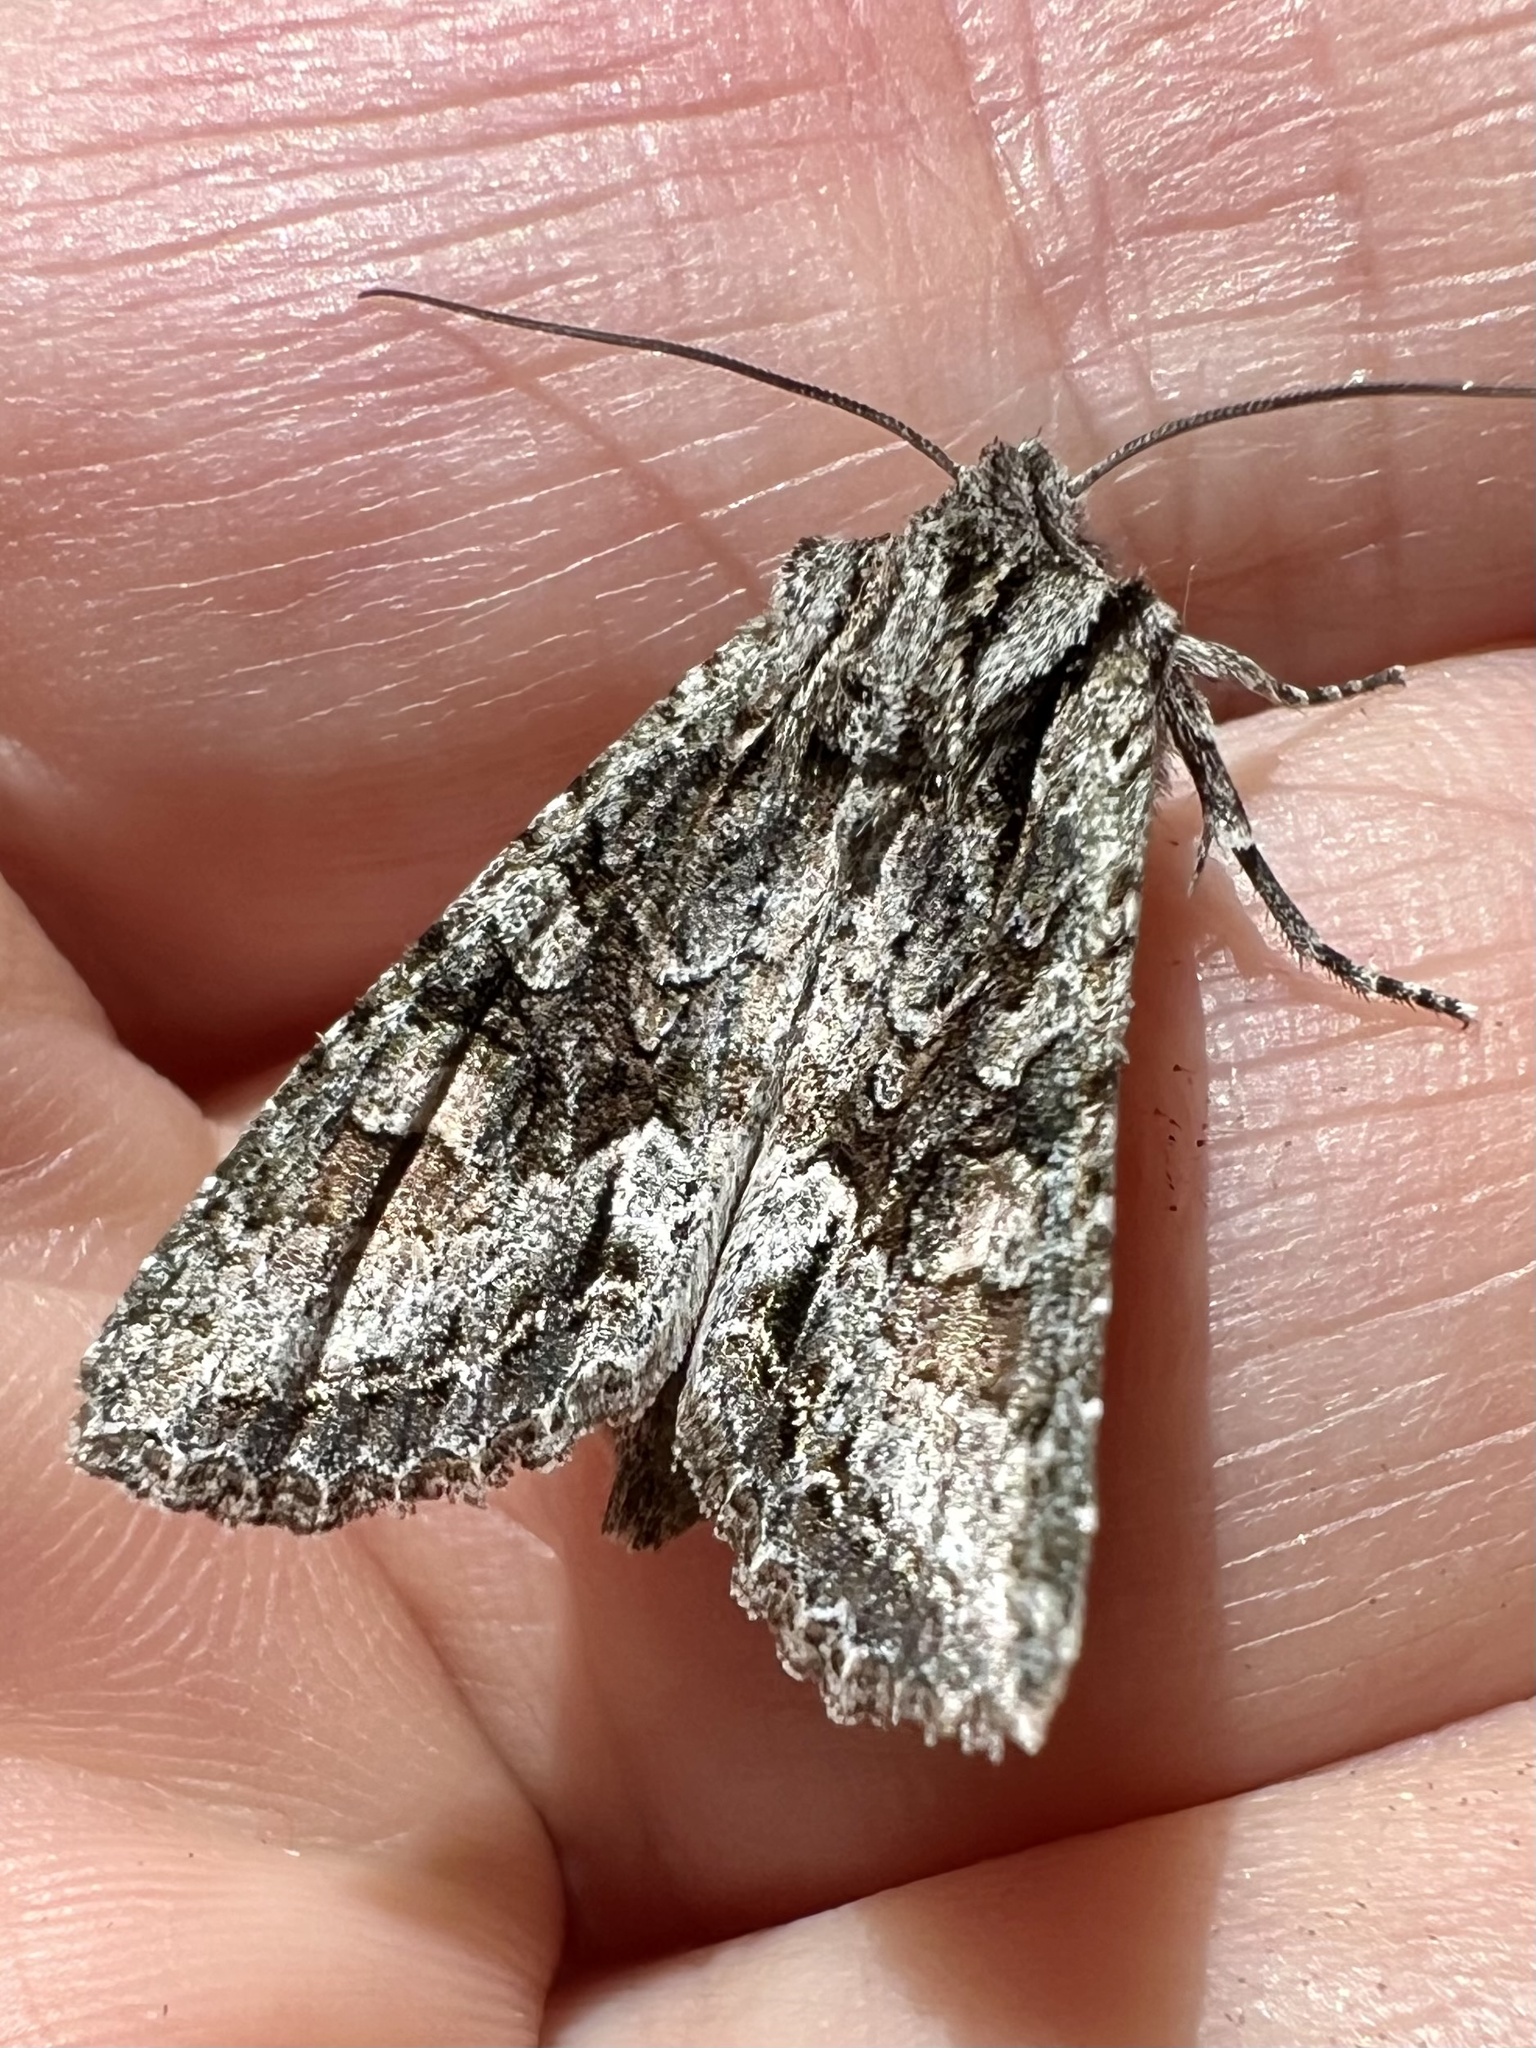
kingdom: Animalia
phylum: Arthropoda
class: Insecta
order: Lepidoptera
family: Noctuidae
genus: Ichneutica
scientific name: Ichneutica mutans
